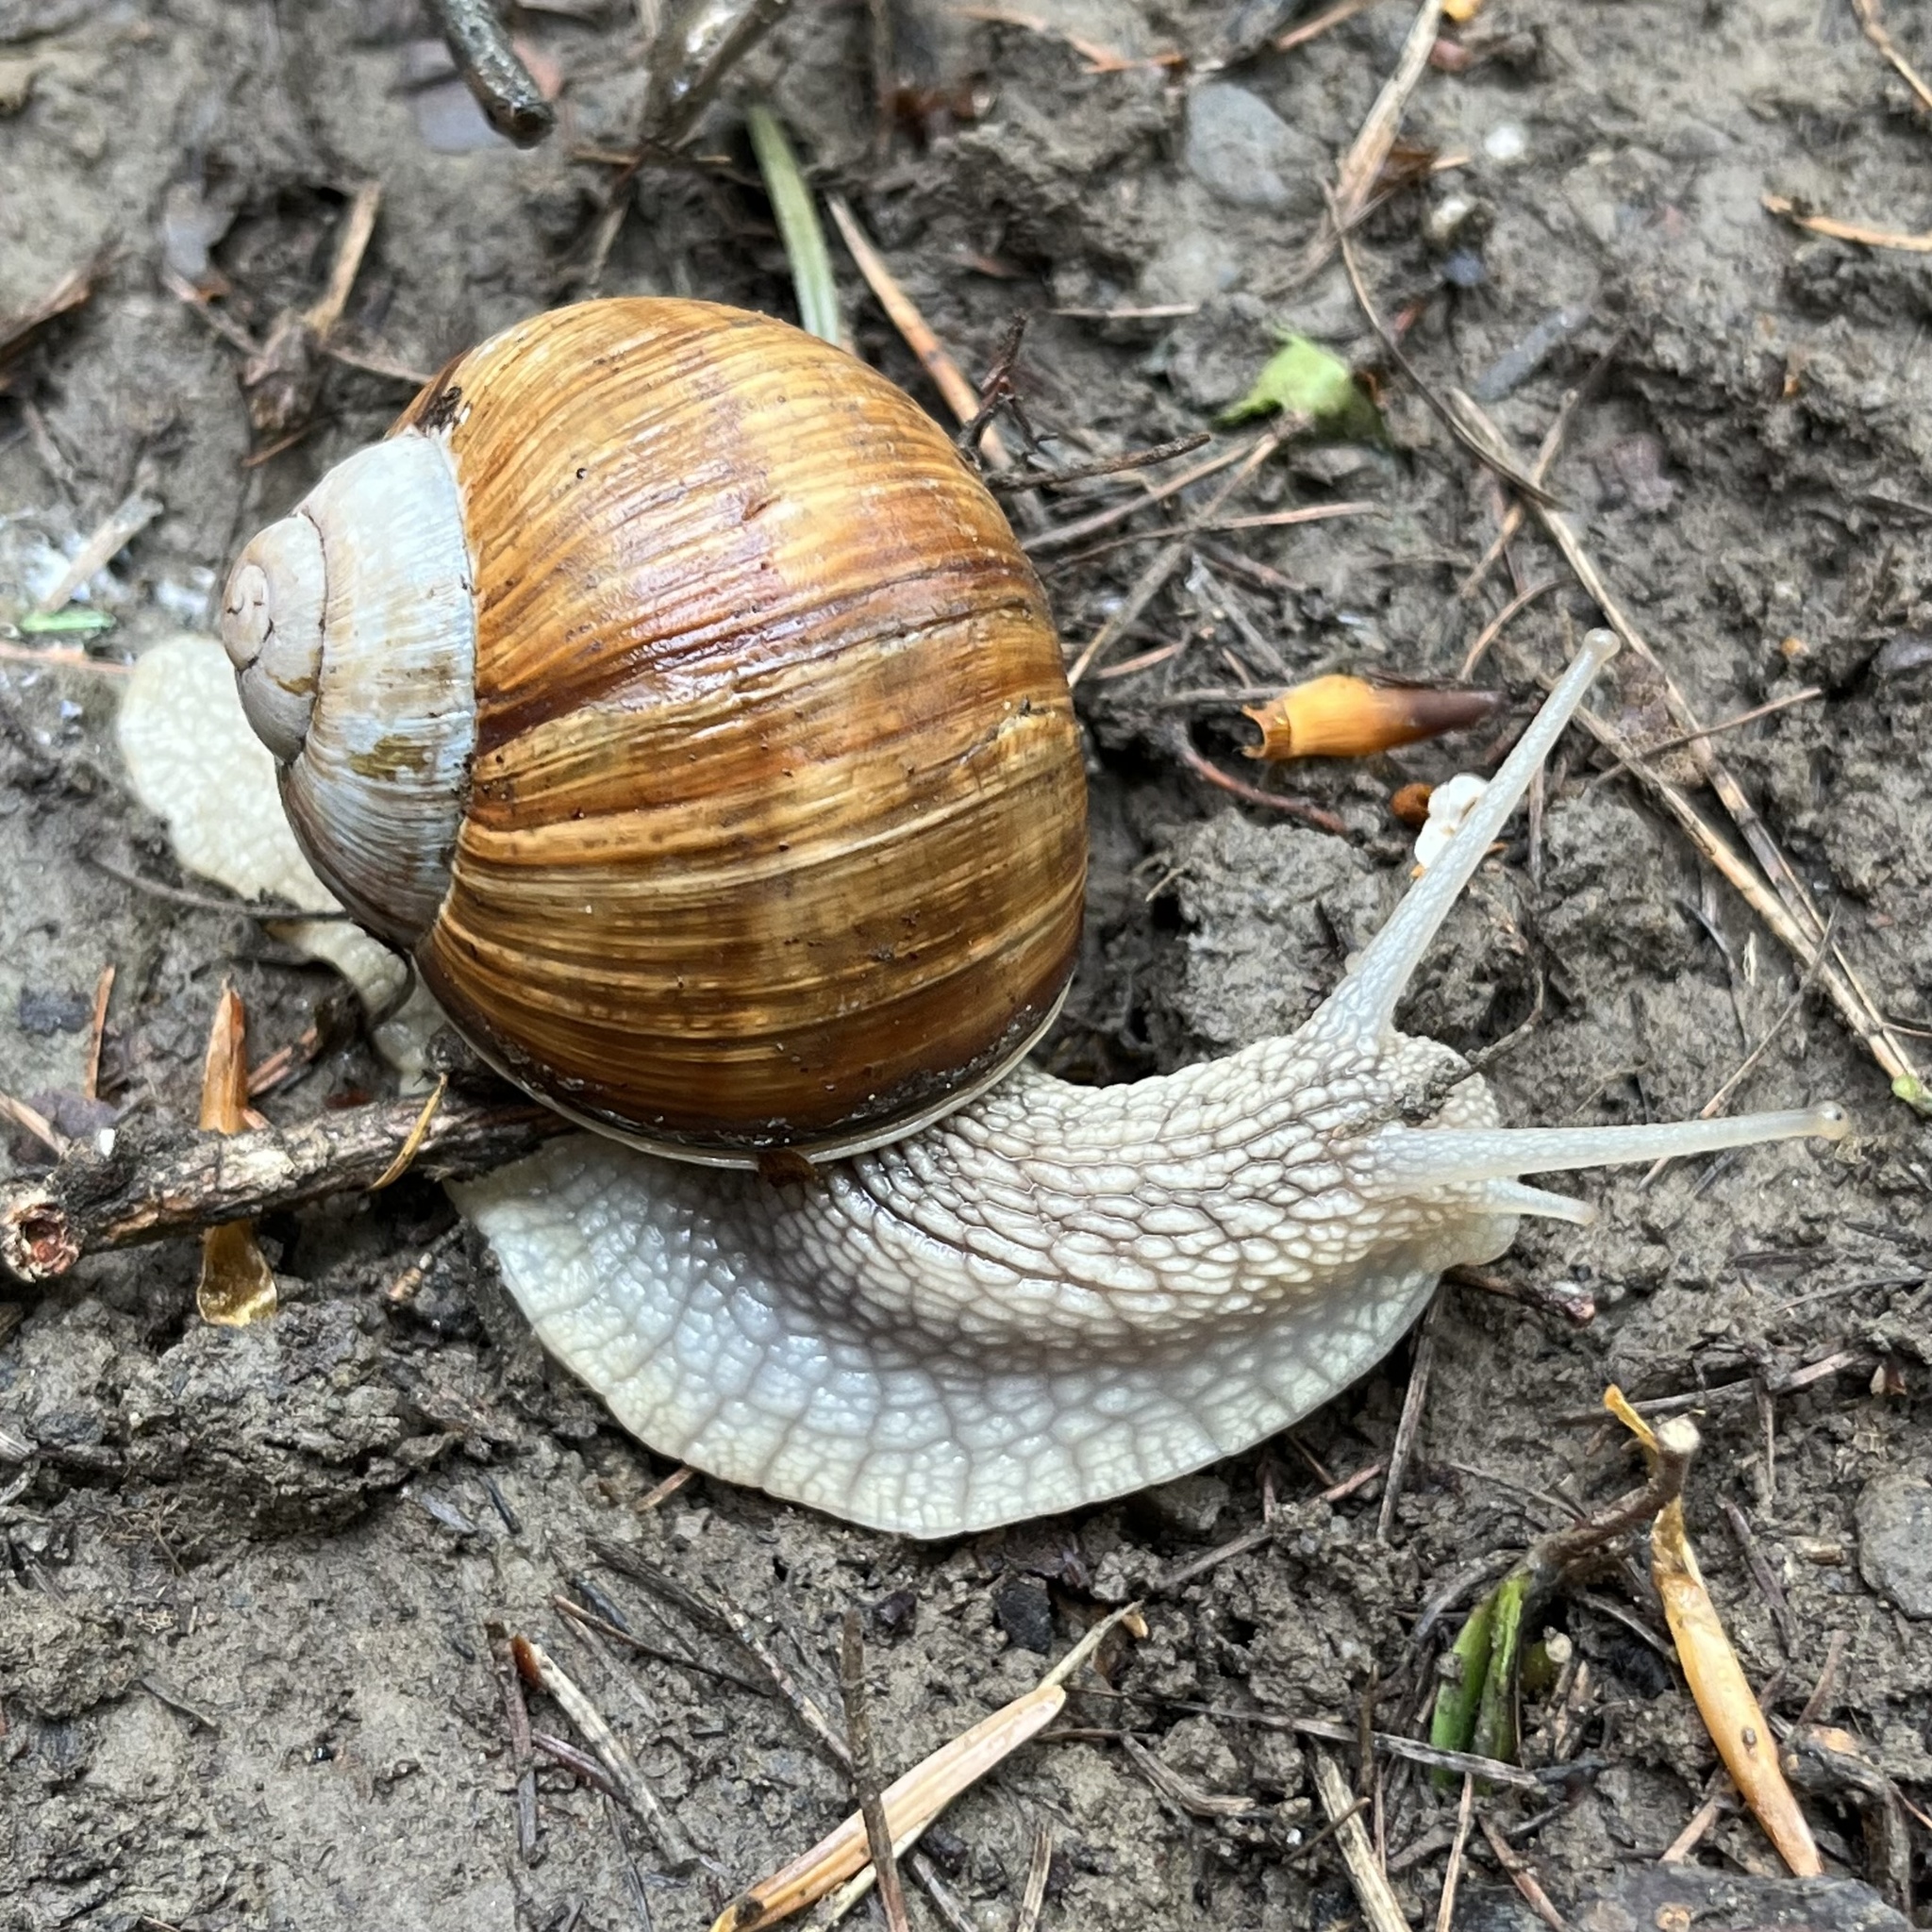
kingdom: Animalia
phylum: Mollusca
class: Gastropoda
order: Stylommatophora
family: Helicidae
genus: Helix
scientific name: Helix pomatia
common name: Roman snail
